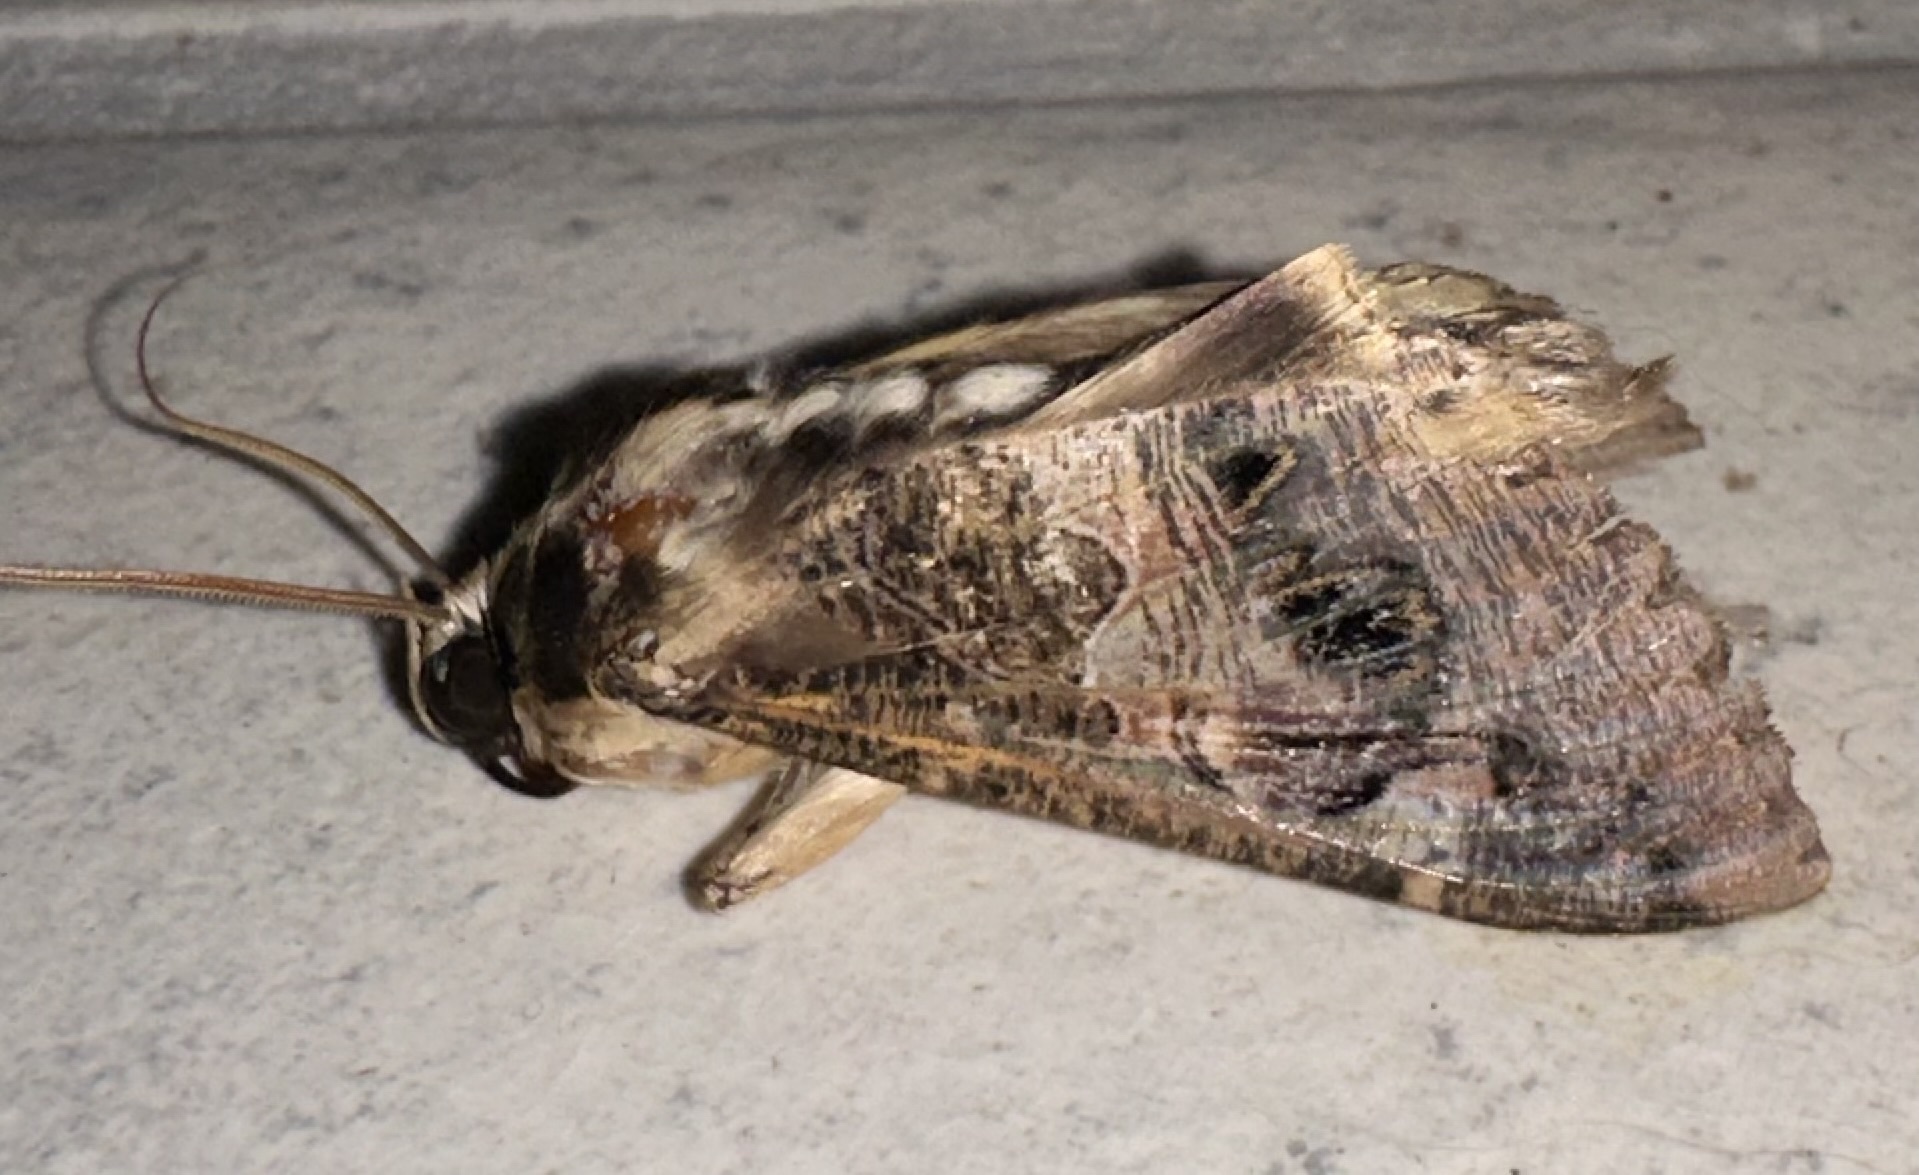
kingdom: Animalia
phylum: Arthropoda
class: Insecta
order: Lepidoptera
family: Erebidae
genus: Sphingomorpha
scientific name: Sphingomorpha chlorea
